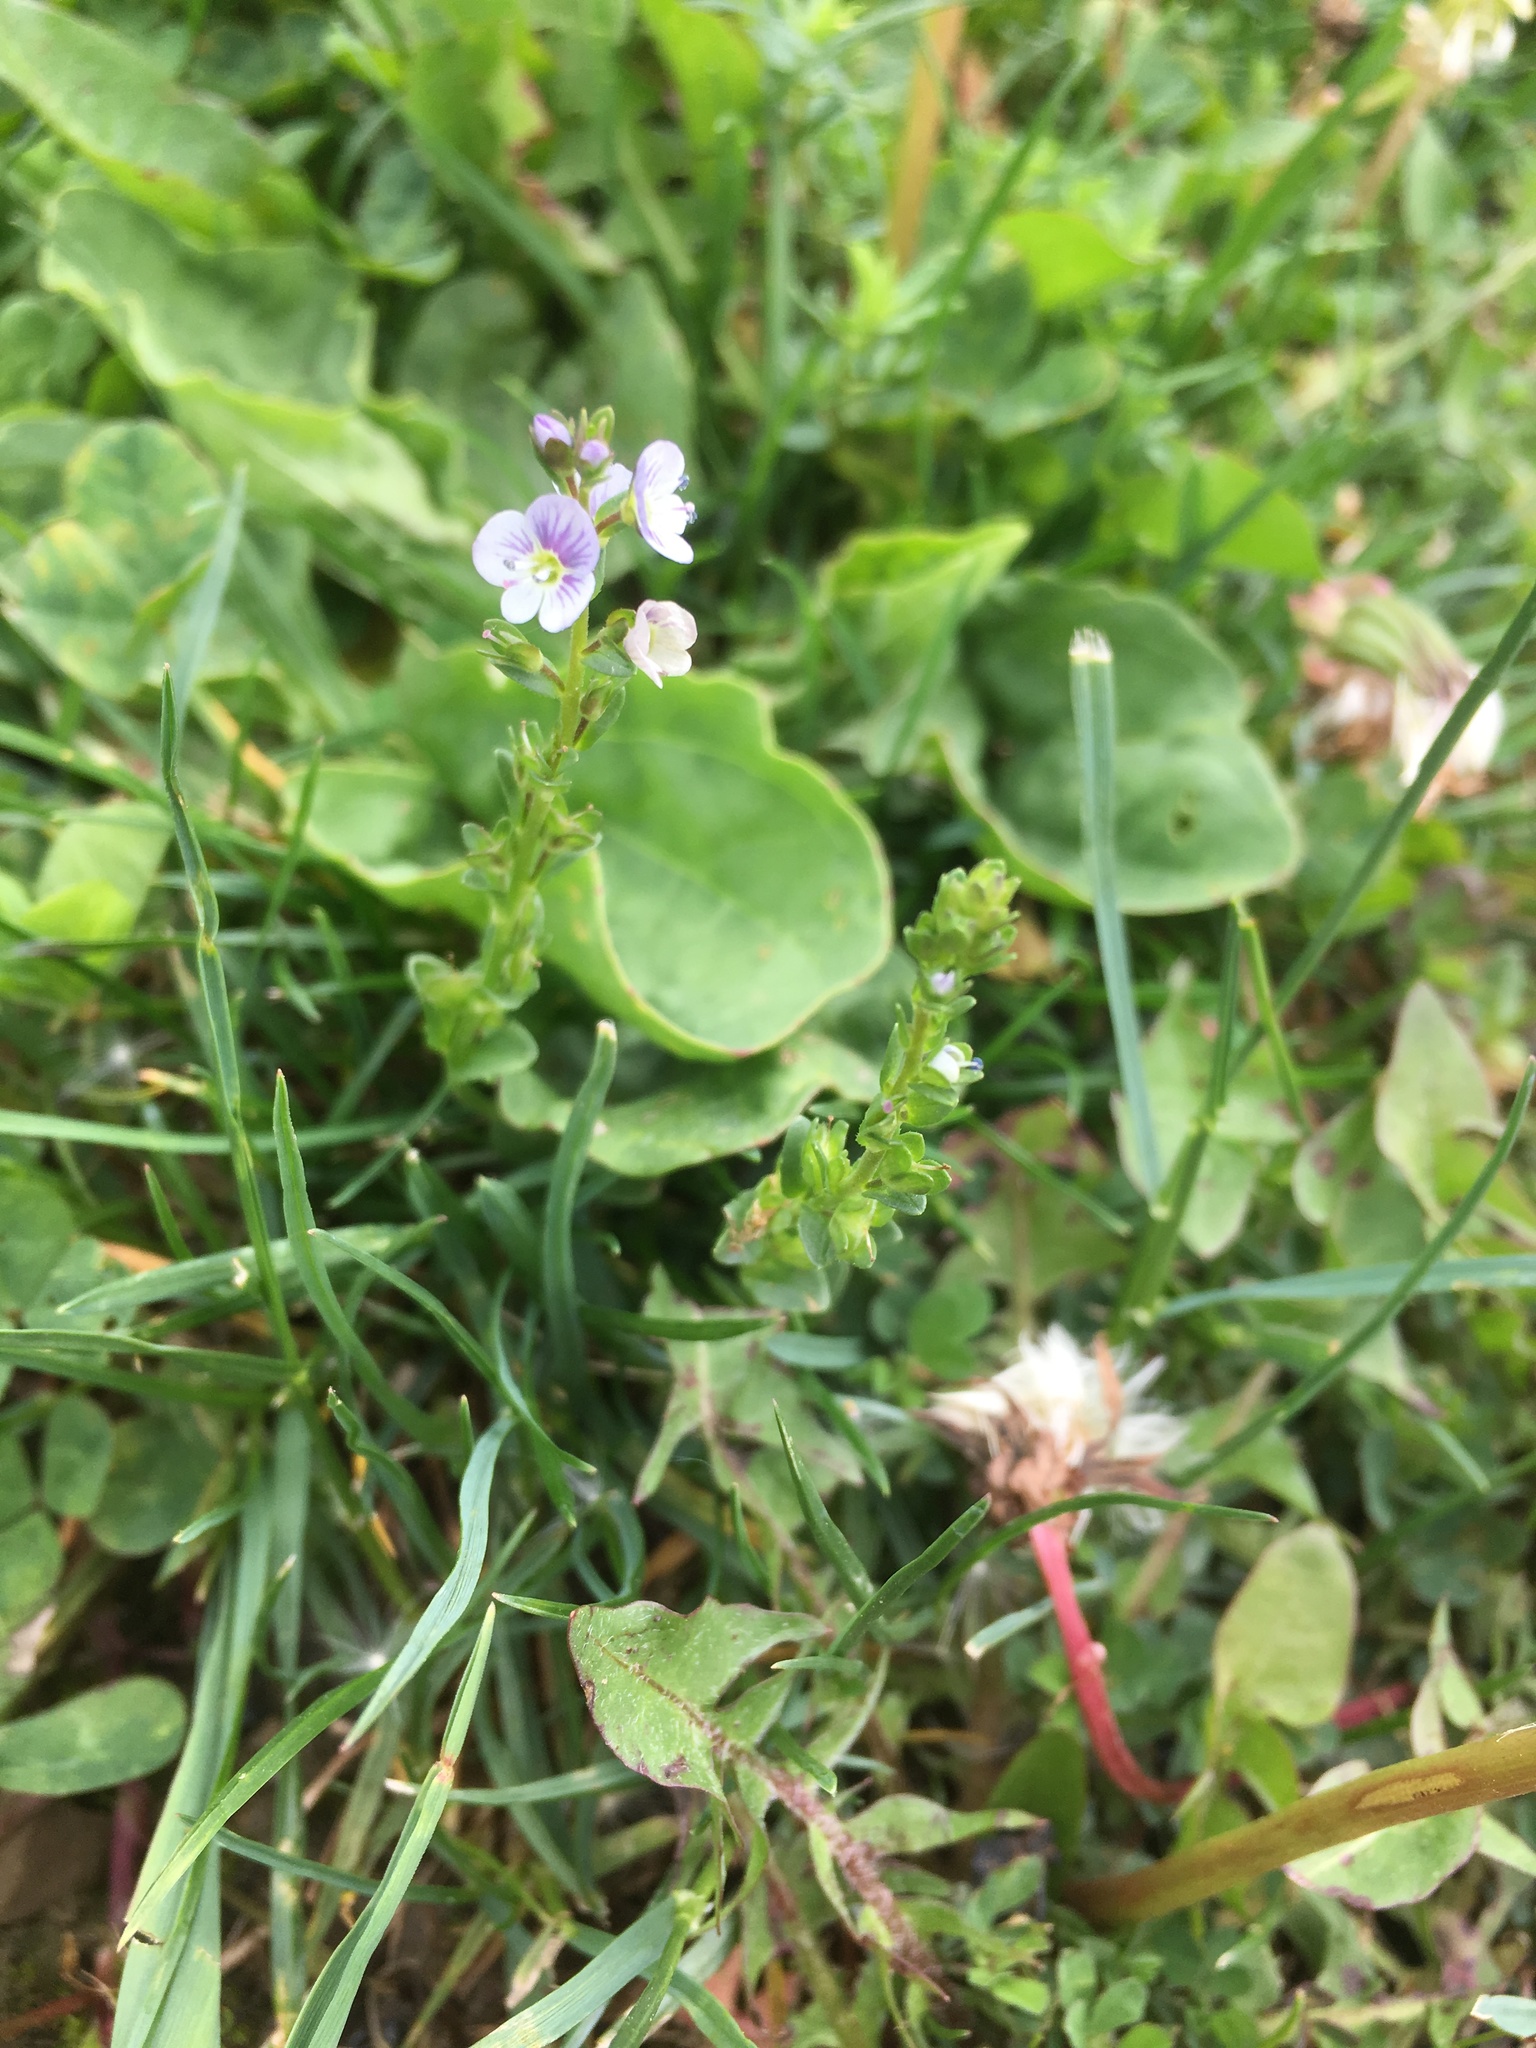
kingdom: Plantae
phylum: Tracheophyta
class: Magnoliopsida
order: Lamiales
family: Plantaginaceae
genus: Veronica
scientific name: Veronica serpyllifolia
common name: Thyme-leaved speedwell
